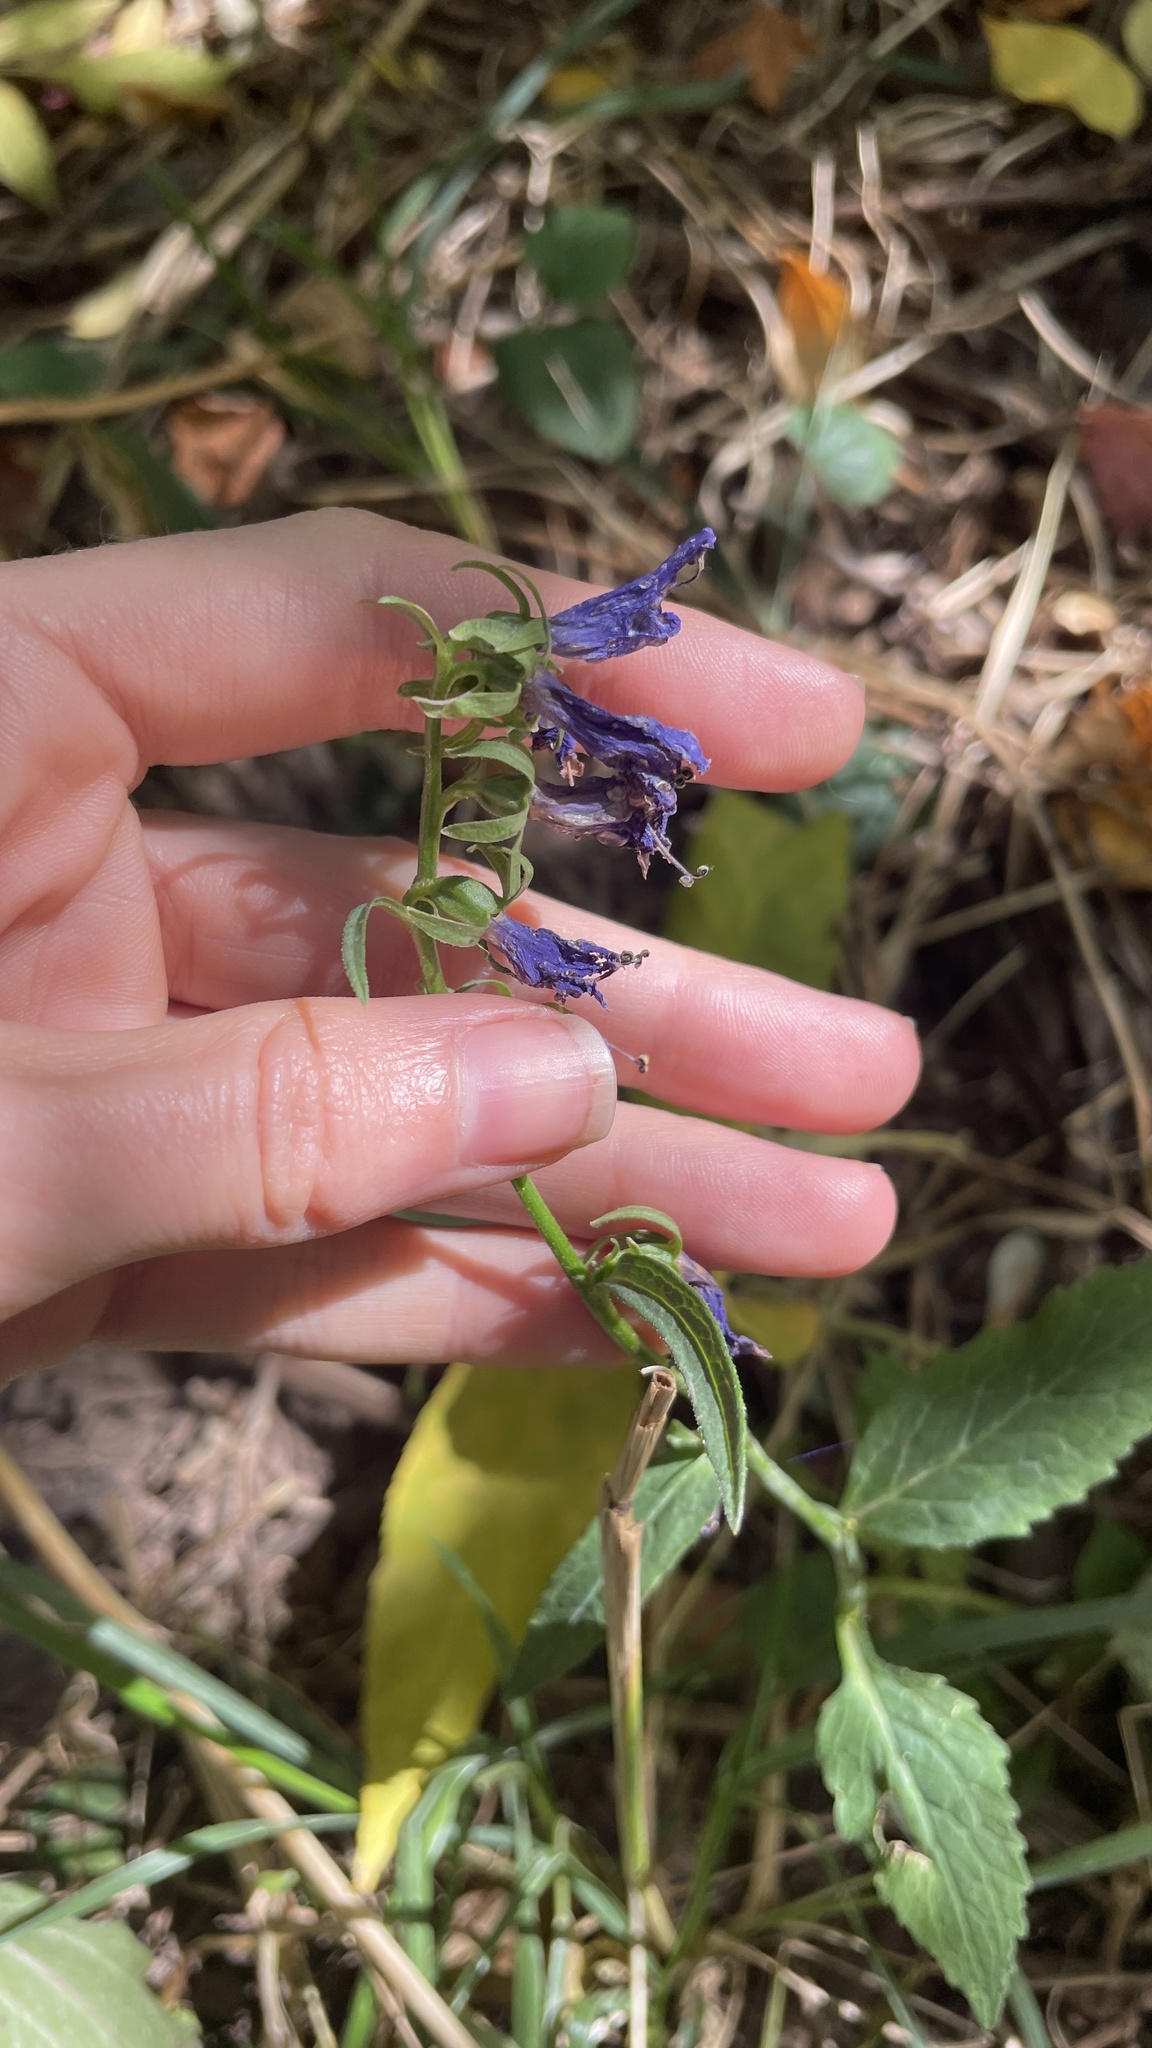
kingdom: Plantae
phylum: Tracheophyta
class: Magnoliopsida
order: Asterales
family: Campanulaceae
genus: Campanula
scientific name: Campanula rapunculoides
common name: Creeping bellflower
